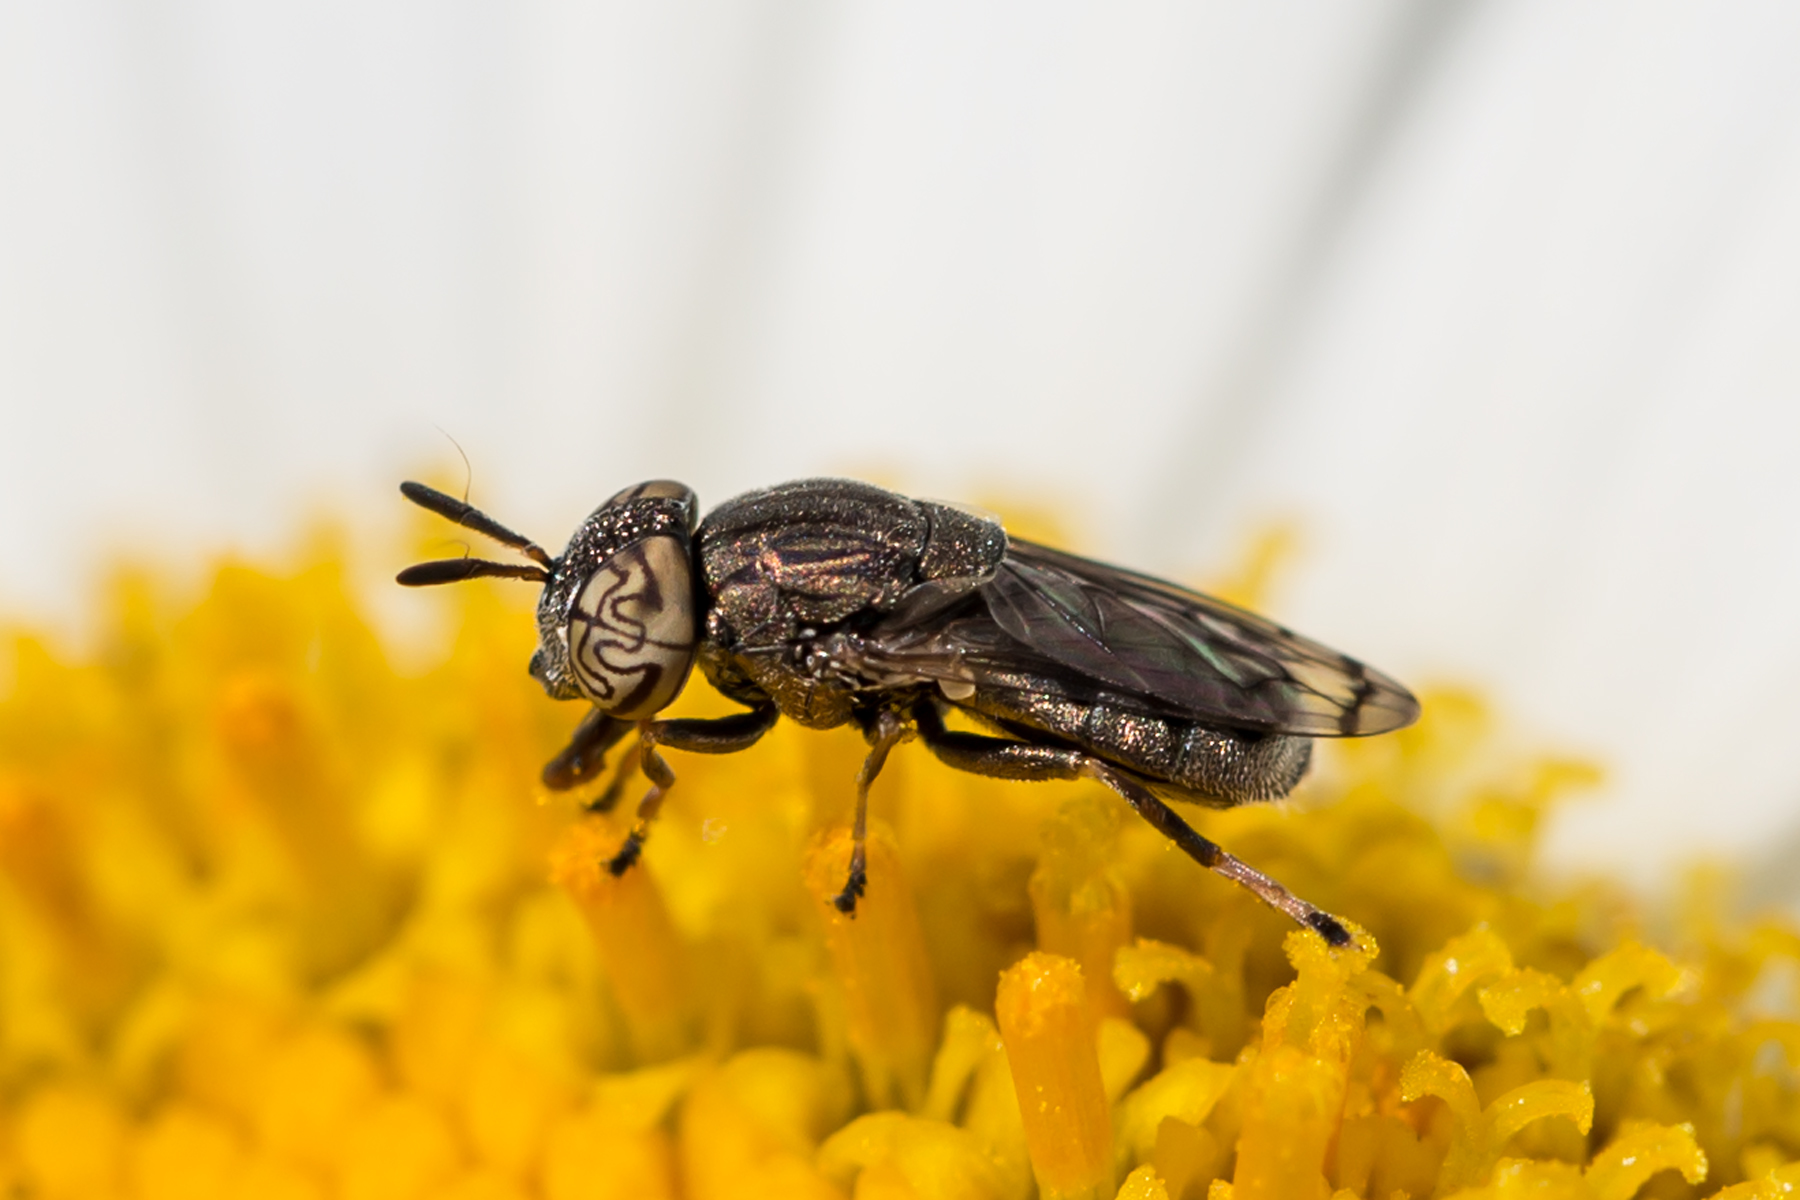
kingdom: Animalia
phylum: Arthropoda
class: Insecta
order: Diptera
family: Syrphidae
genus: Orthonevra
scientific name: Orthonevra nitida
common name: Wavy mucksucker
